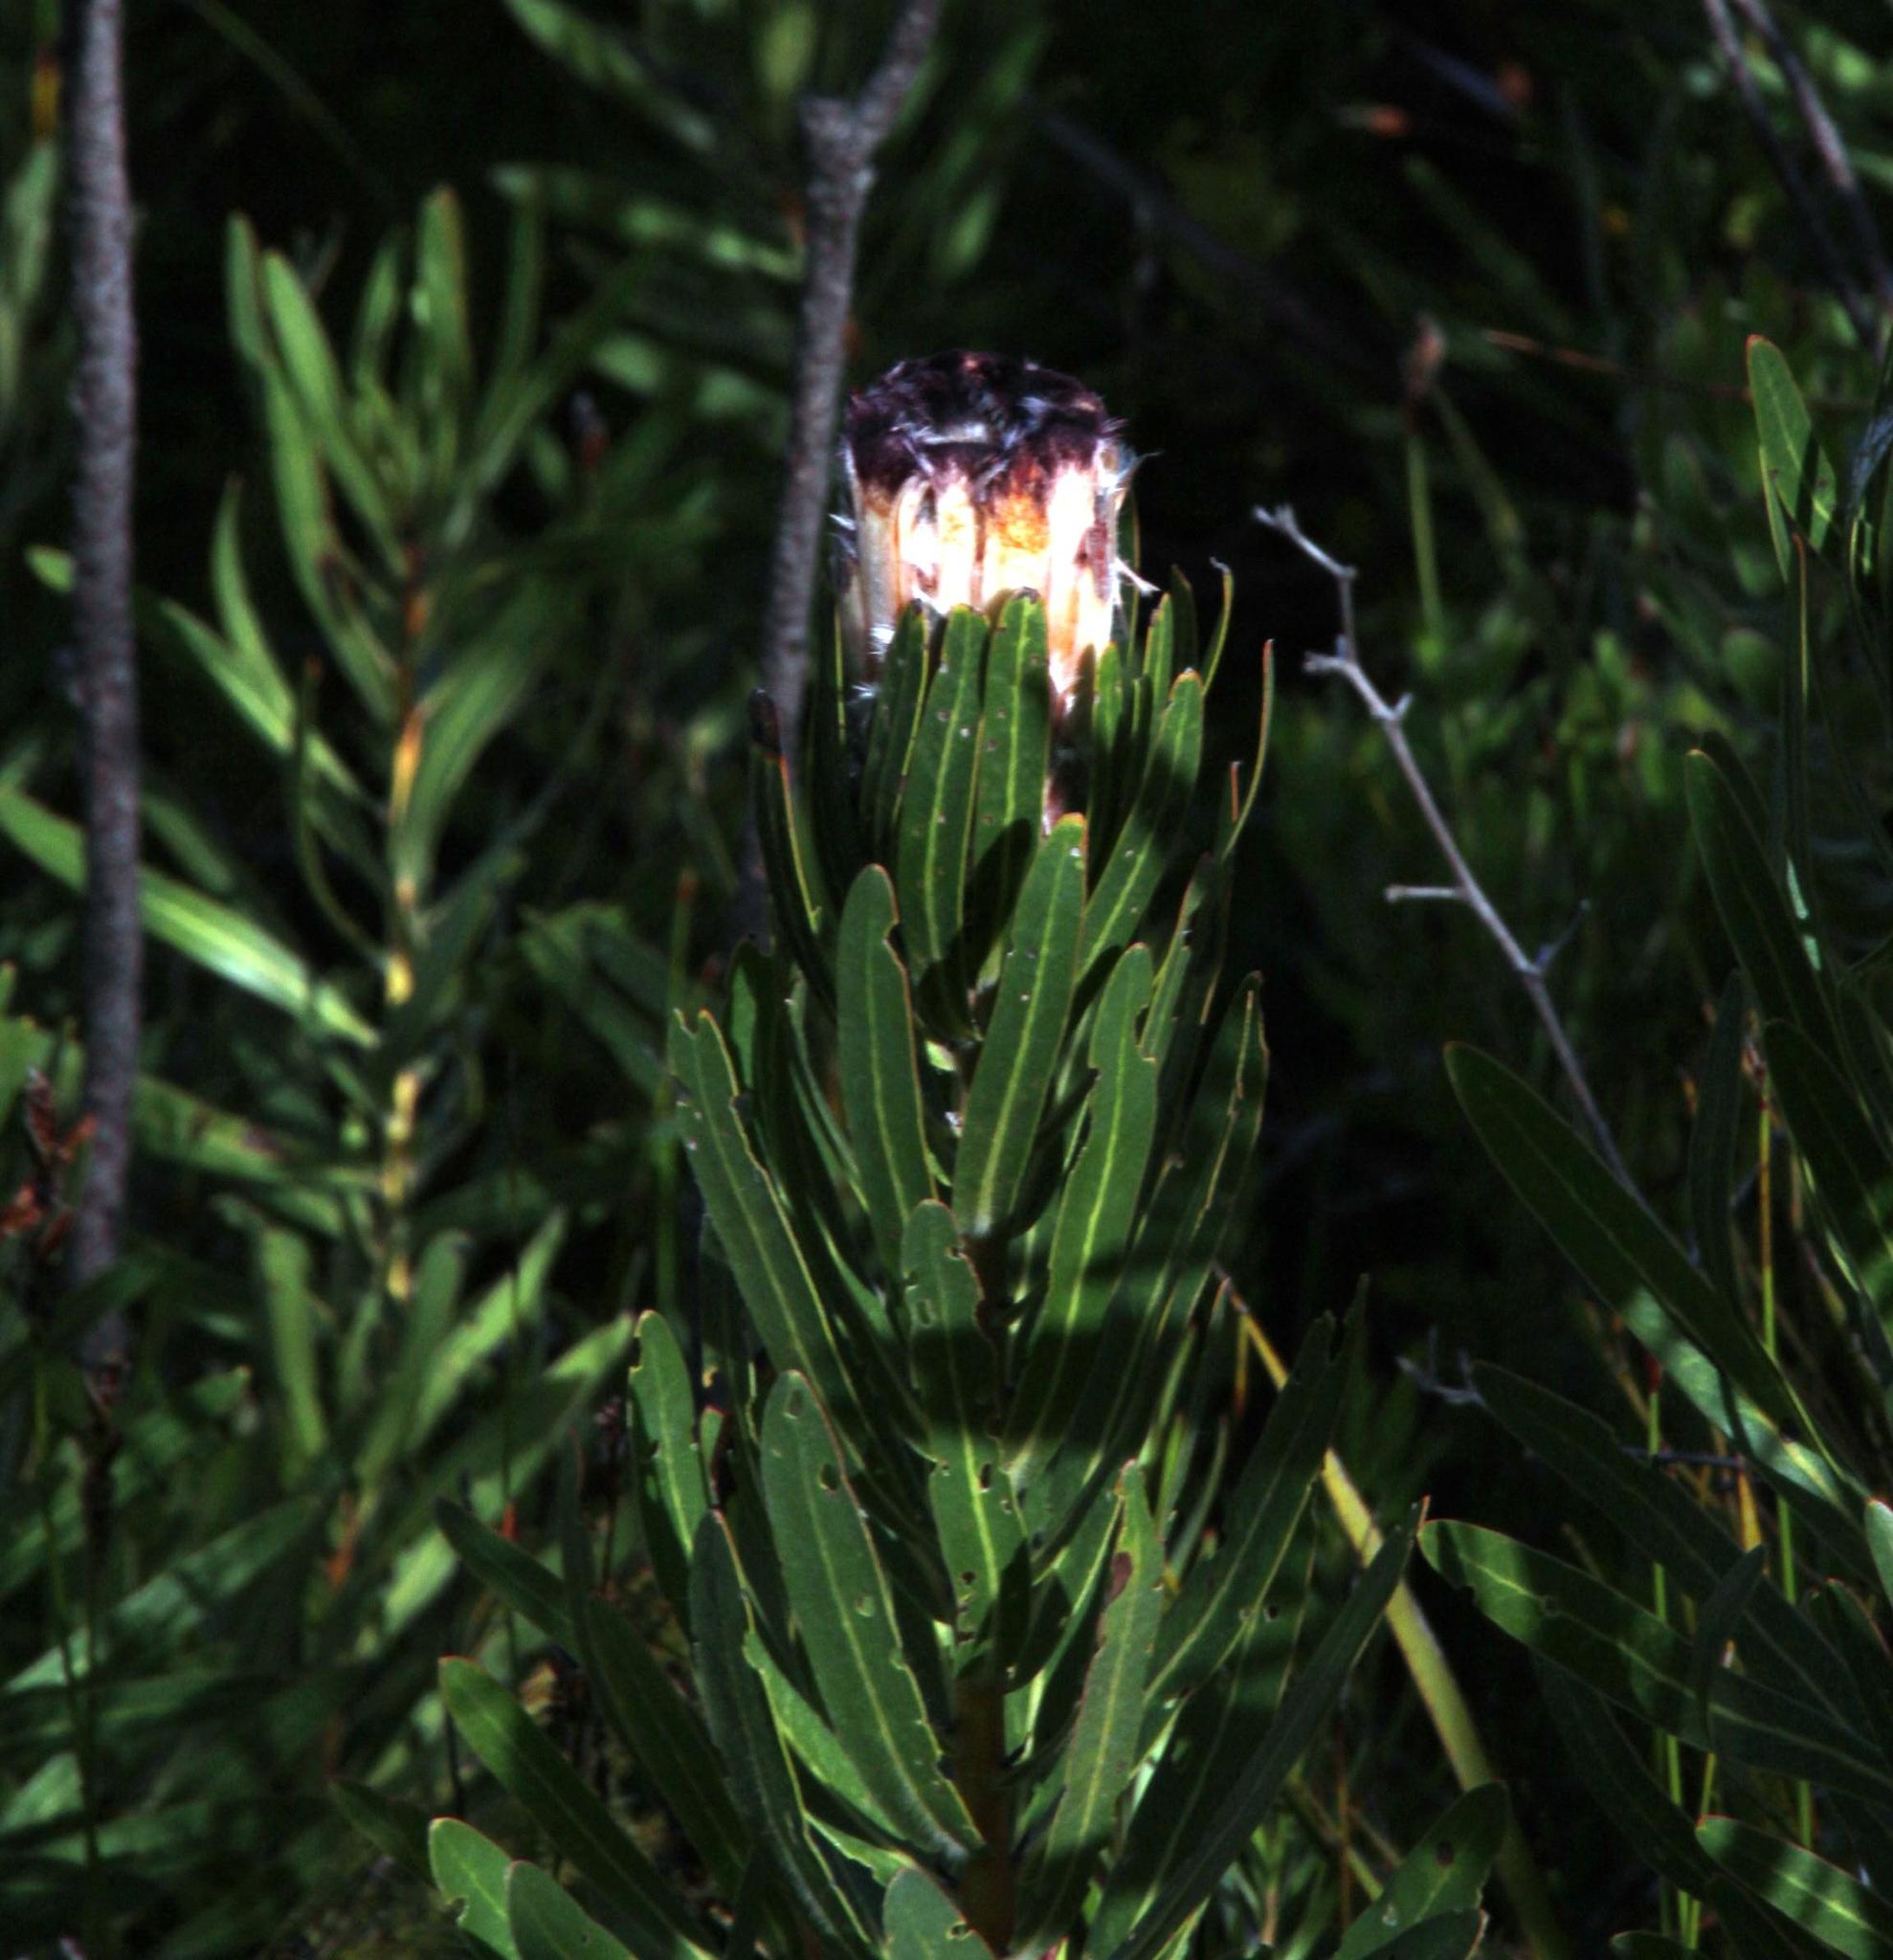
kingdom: Plantae
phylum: Tracheophyta
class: Magnoliopsida
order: Proteales
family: Proteaceae
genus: Protea
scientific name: Protea lepidocarpodendron
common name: Black-bearded protea
